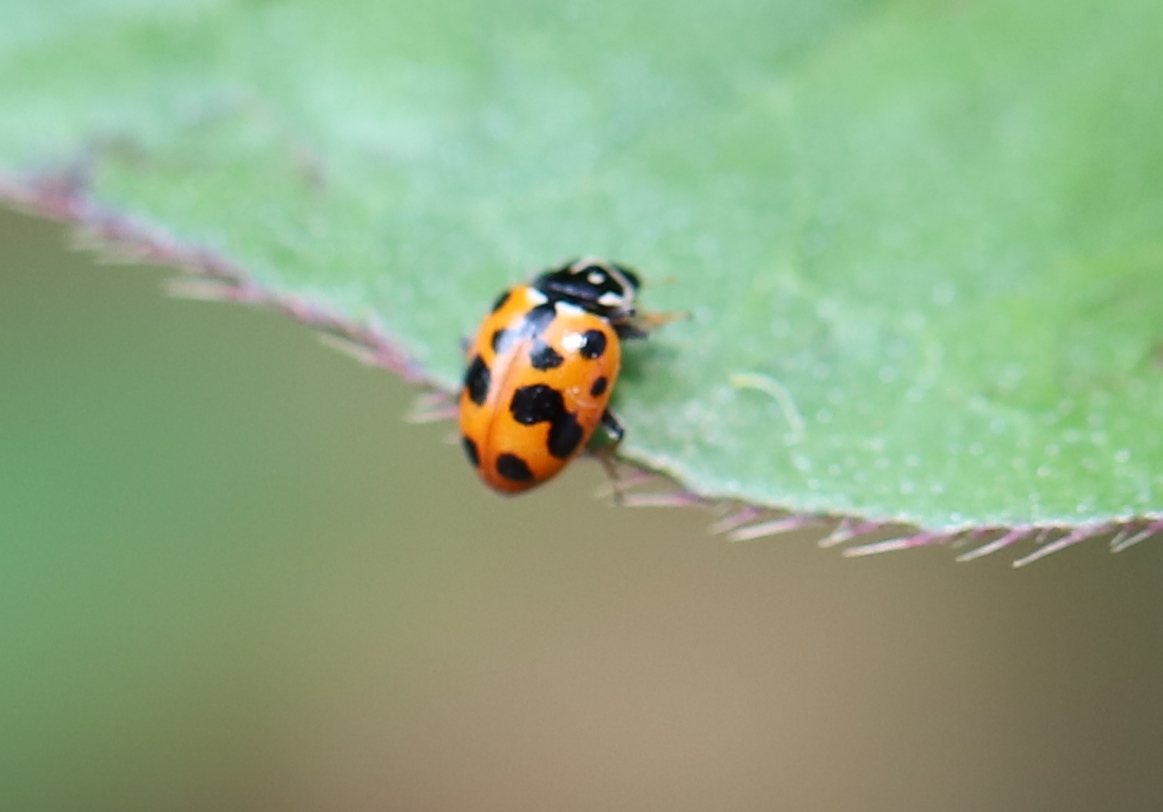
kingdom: Animalia
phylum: Arthropoda
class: Insecta
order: Coleoptera
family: Coccinellidae
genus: Hippodamia
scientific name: Hippodamia variegata
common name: Ladybird beetle
